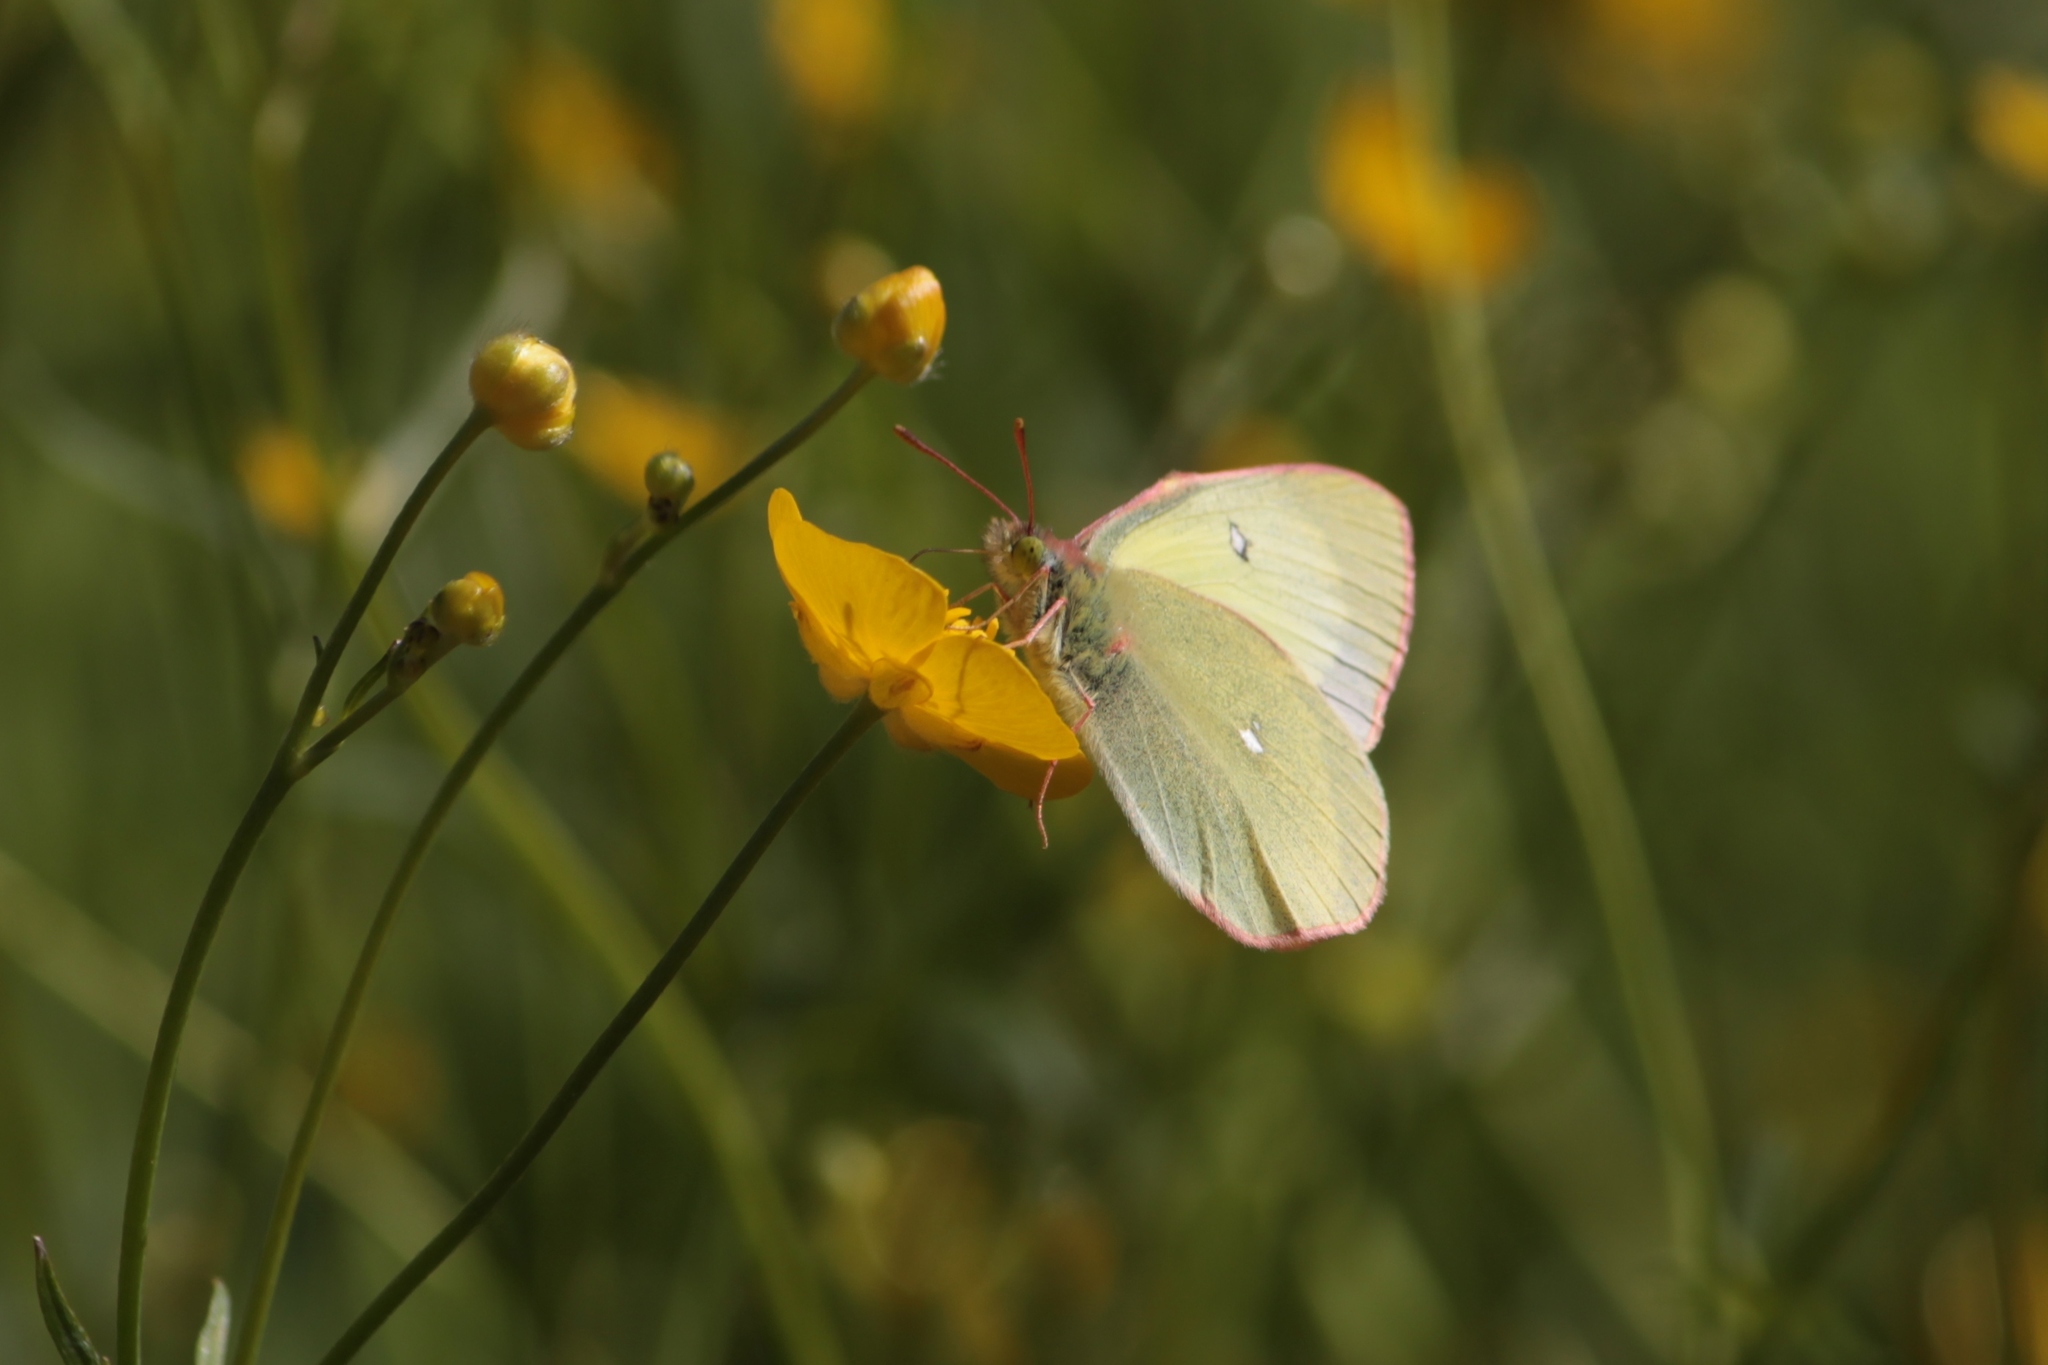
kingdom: Animalia
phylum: Arthropoda
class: Insecta
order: Lepidoptera
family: Pieridae
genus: Colias
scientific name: Colias palaeno
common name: Moorland clouded yellow
